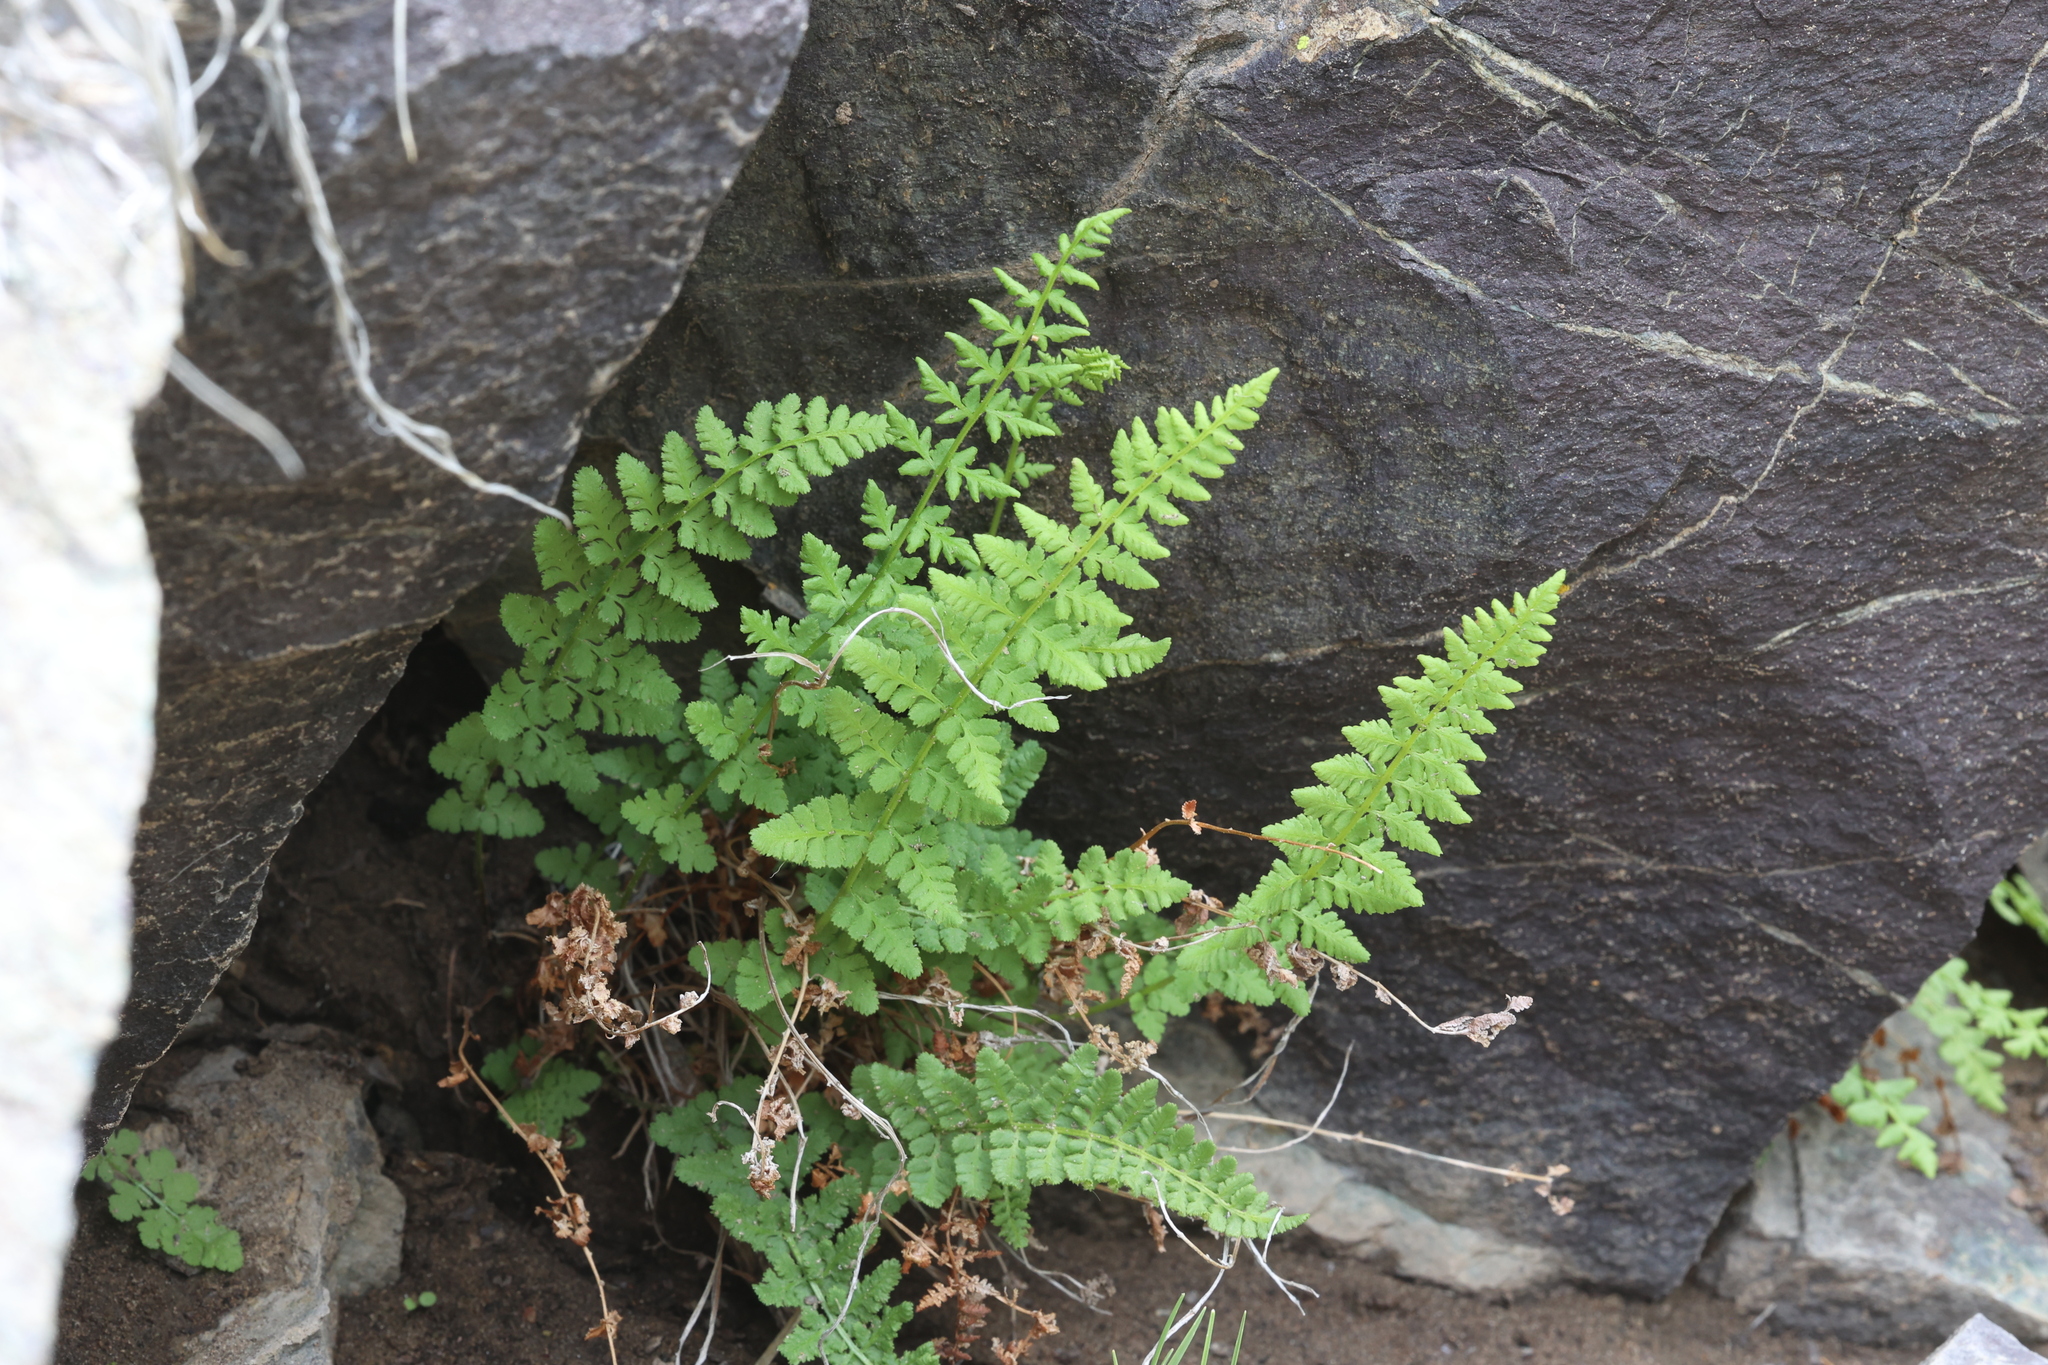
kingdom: Plantae
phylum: Tracheophyta
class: Polypodiopsida
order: Polypodiales
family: Woodsiaceae
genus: Physematium
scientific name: Physematium oreganum
